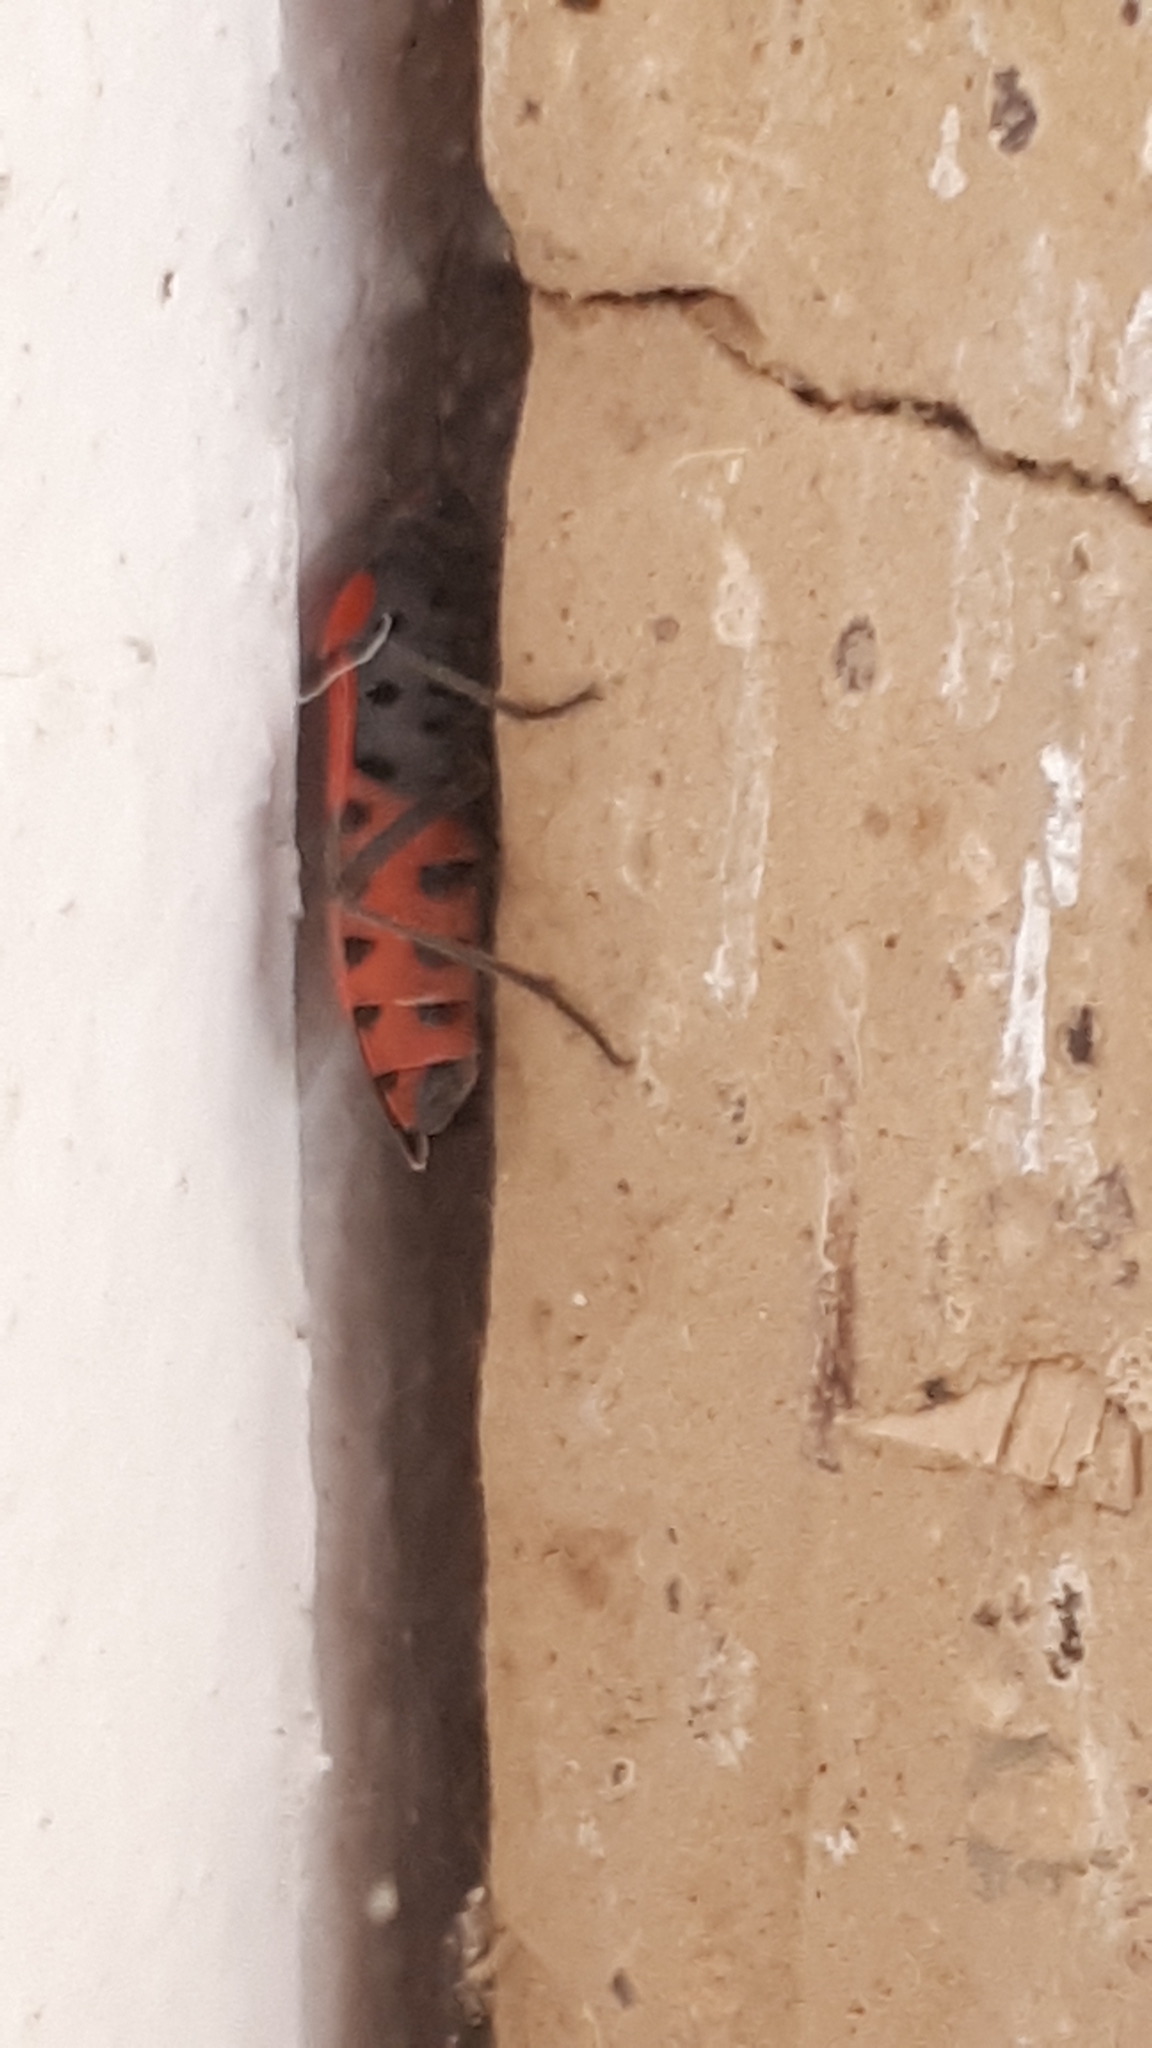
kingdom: Animalia
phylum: Arthropoda
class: Insecta
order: Hemiptera
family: Lygaeidae
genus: Lygaeus
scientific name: Lygaeus equestris
